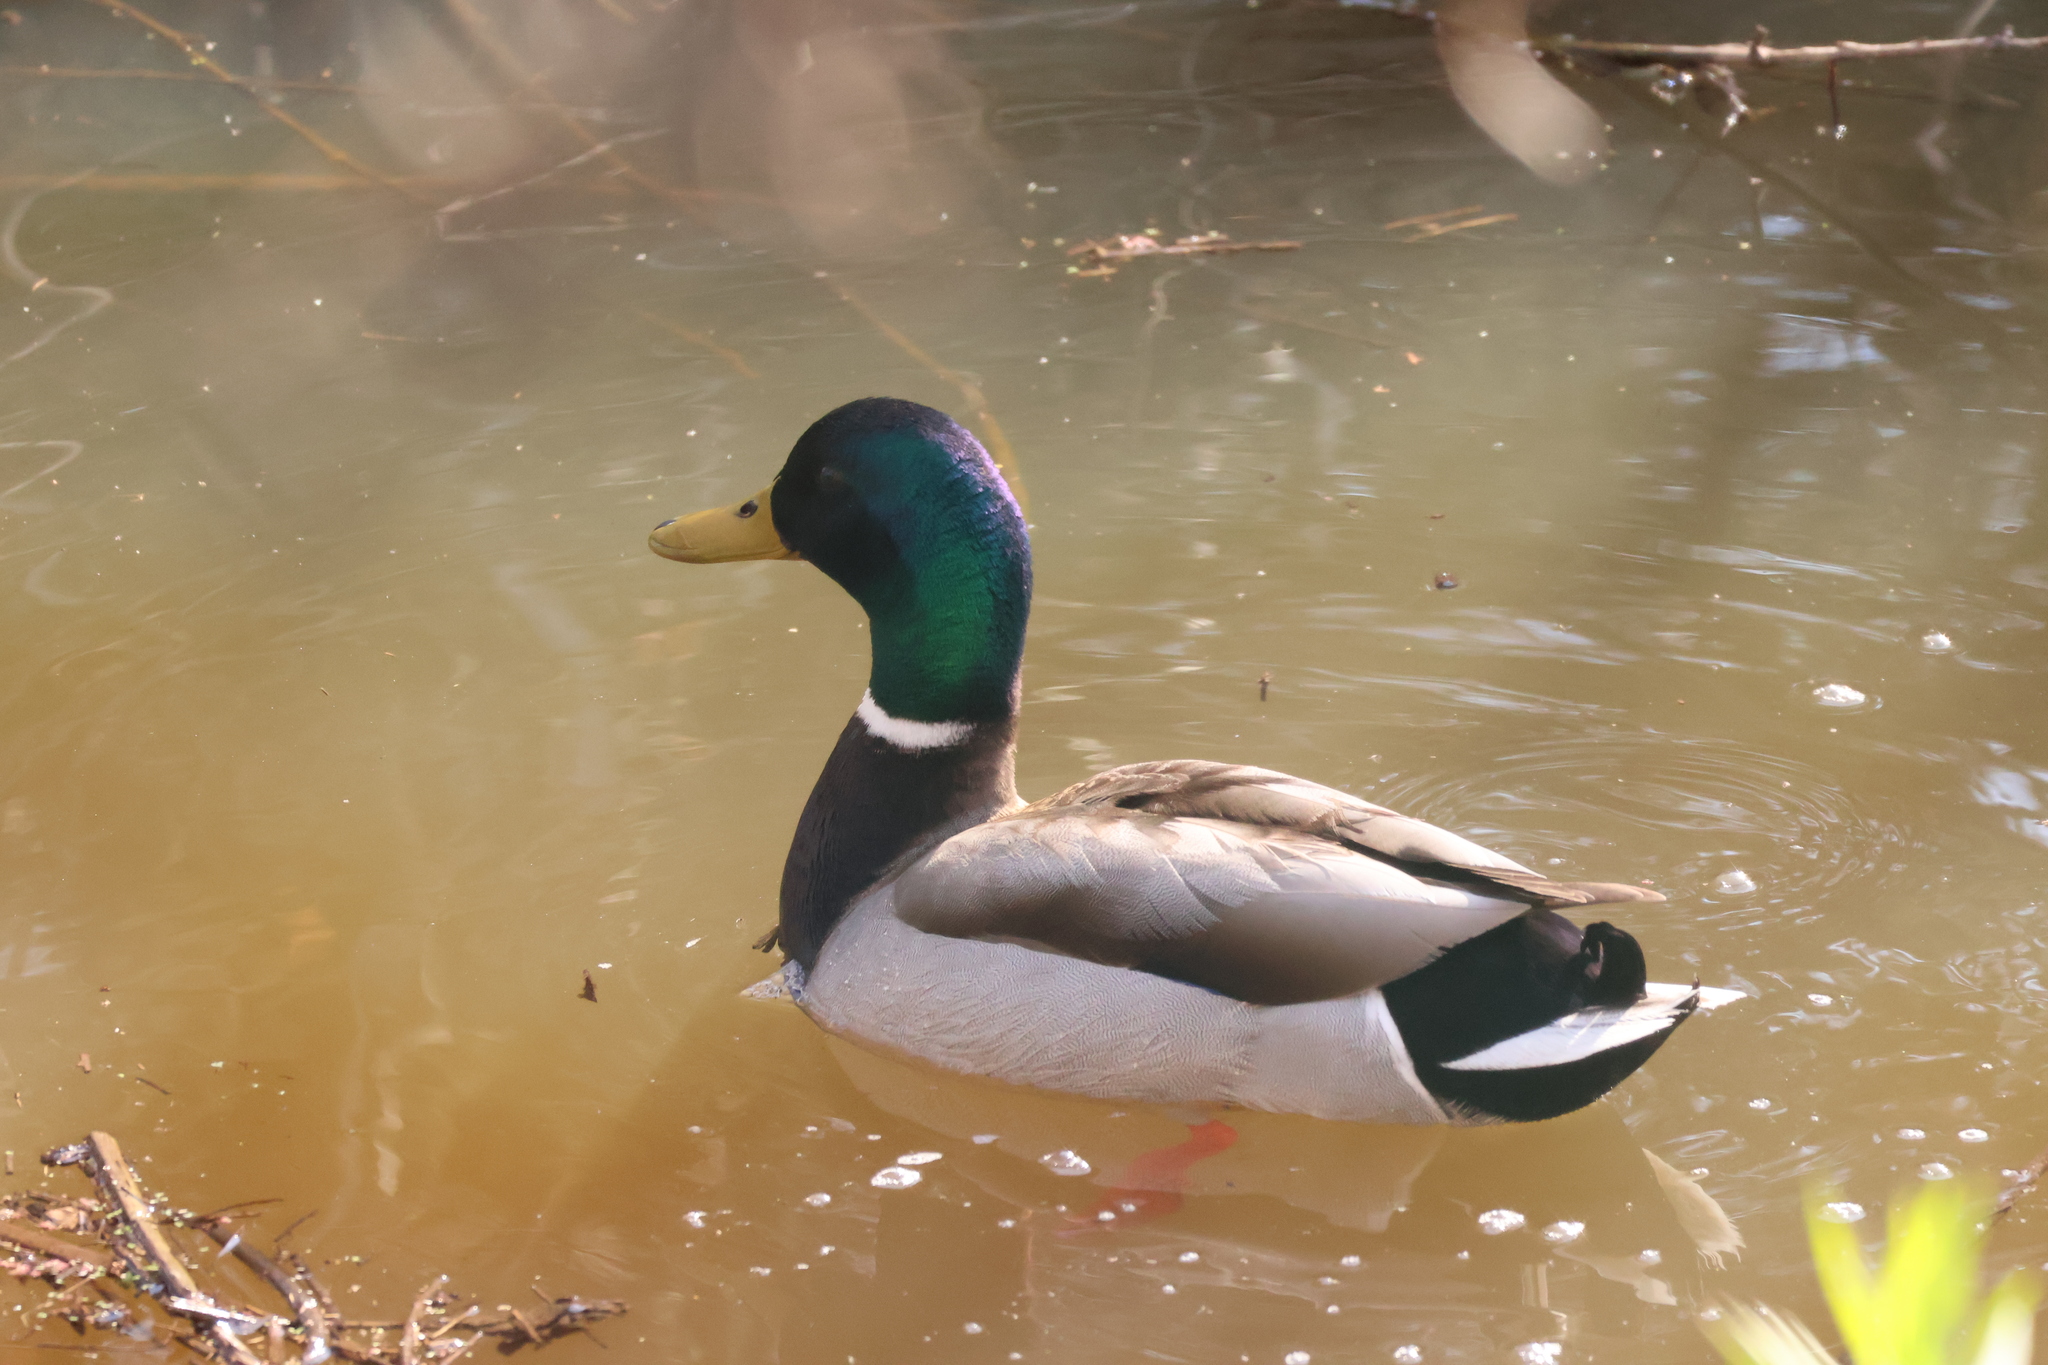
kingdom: Animalia
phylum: Chordata
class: Aves
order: Anseriformes
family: Anatidae
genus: Anas
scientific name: Anas platyrhynchos
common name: Mallard
